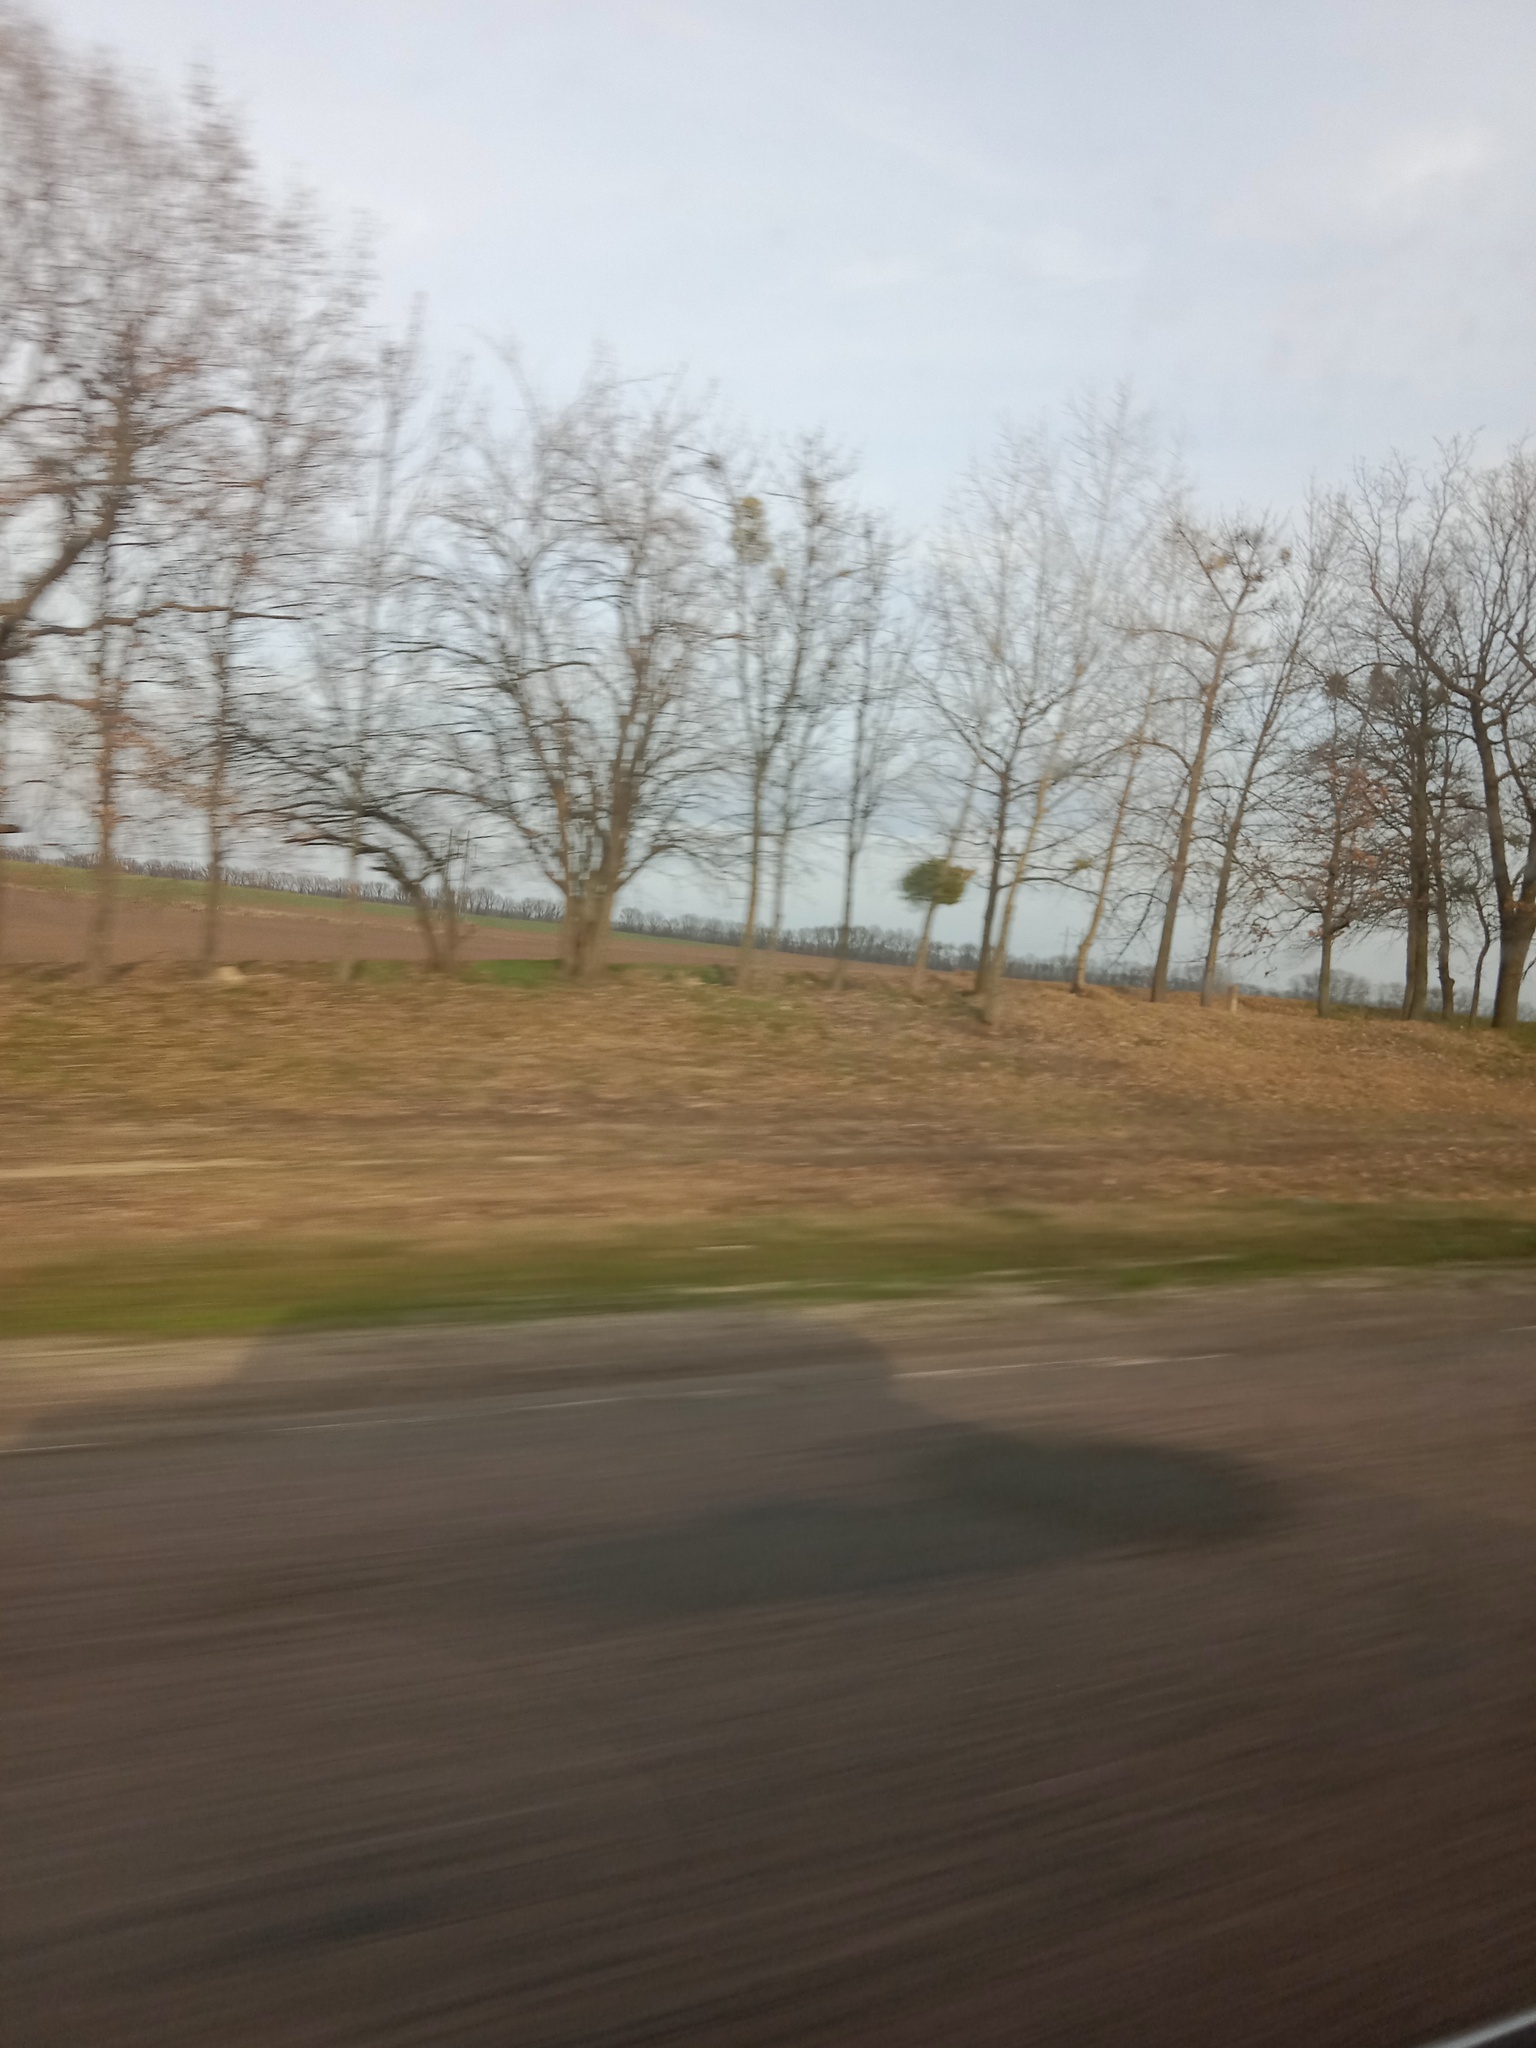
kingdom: Plantae
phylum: Tracheophyta
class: Magnoliopsida
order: Santalales
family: Viscaceae
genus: Viscum
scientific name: Viscum album
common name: Mistletoe
